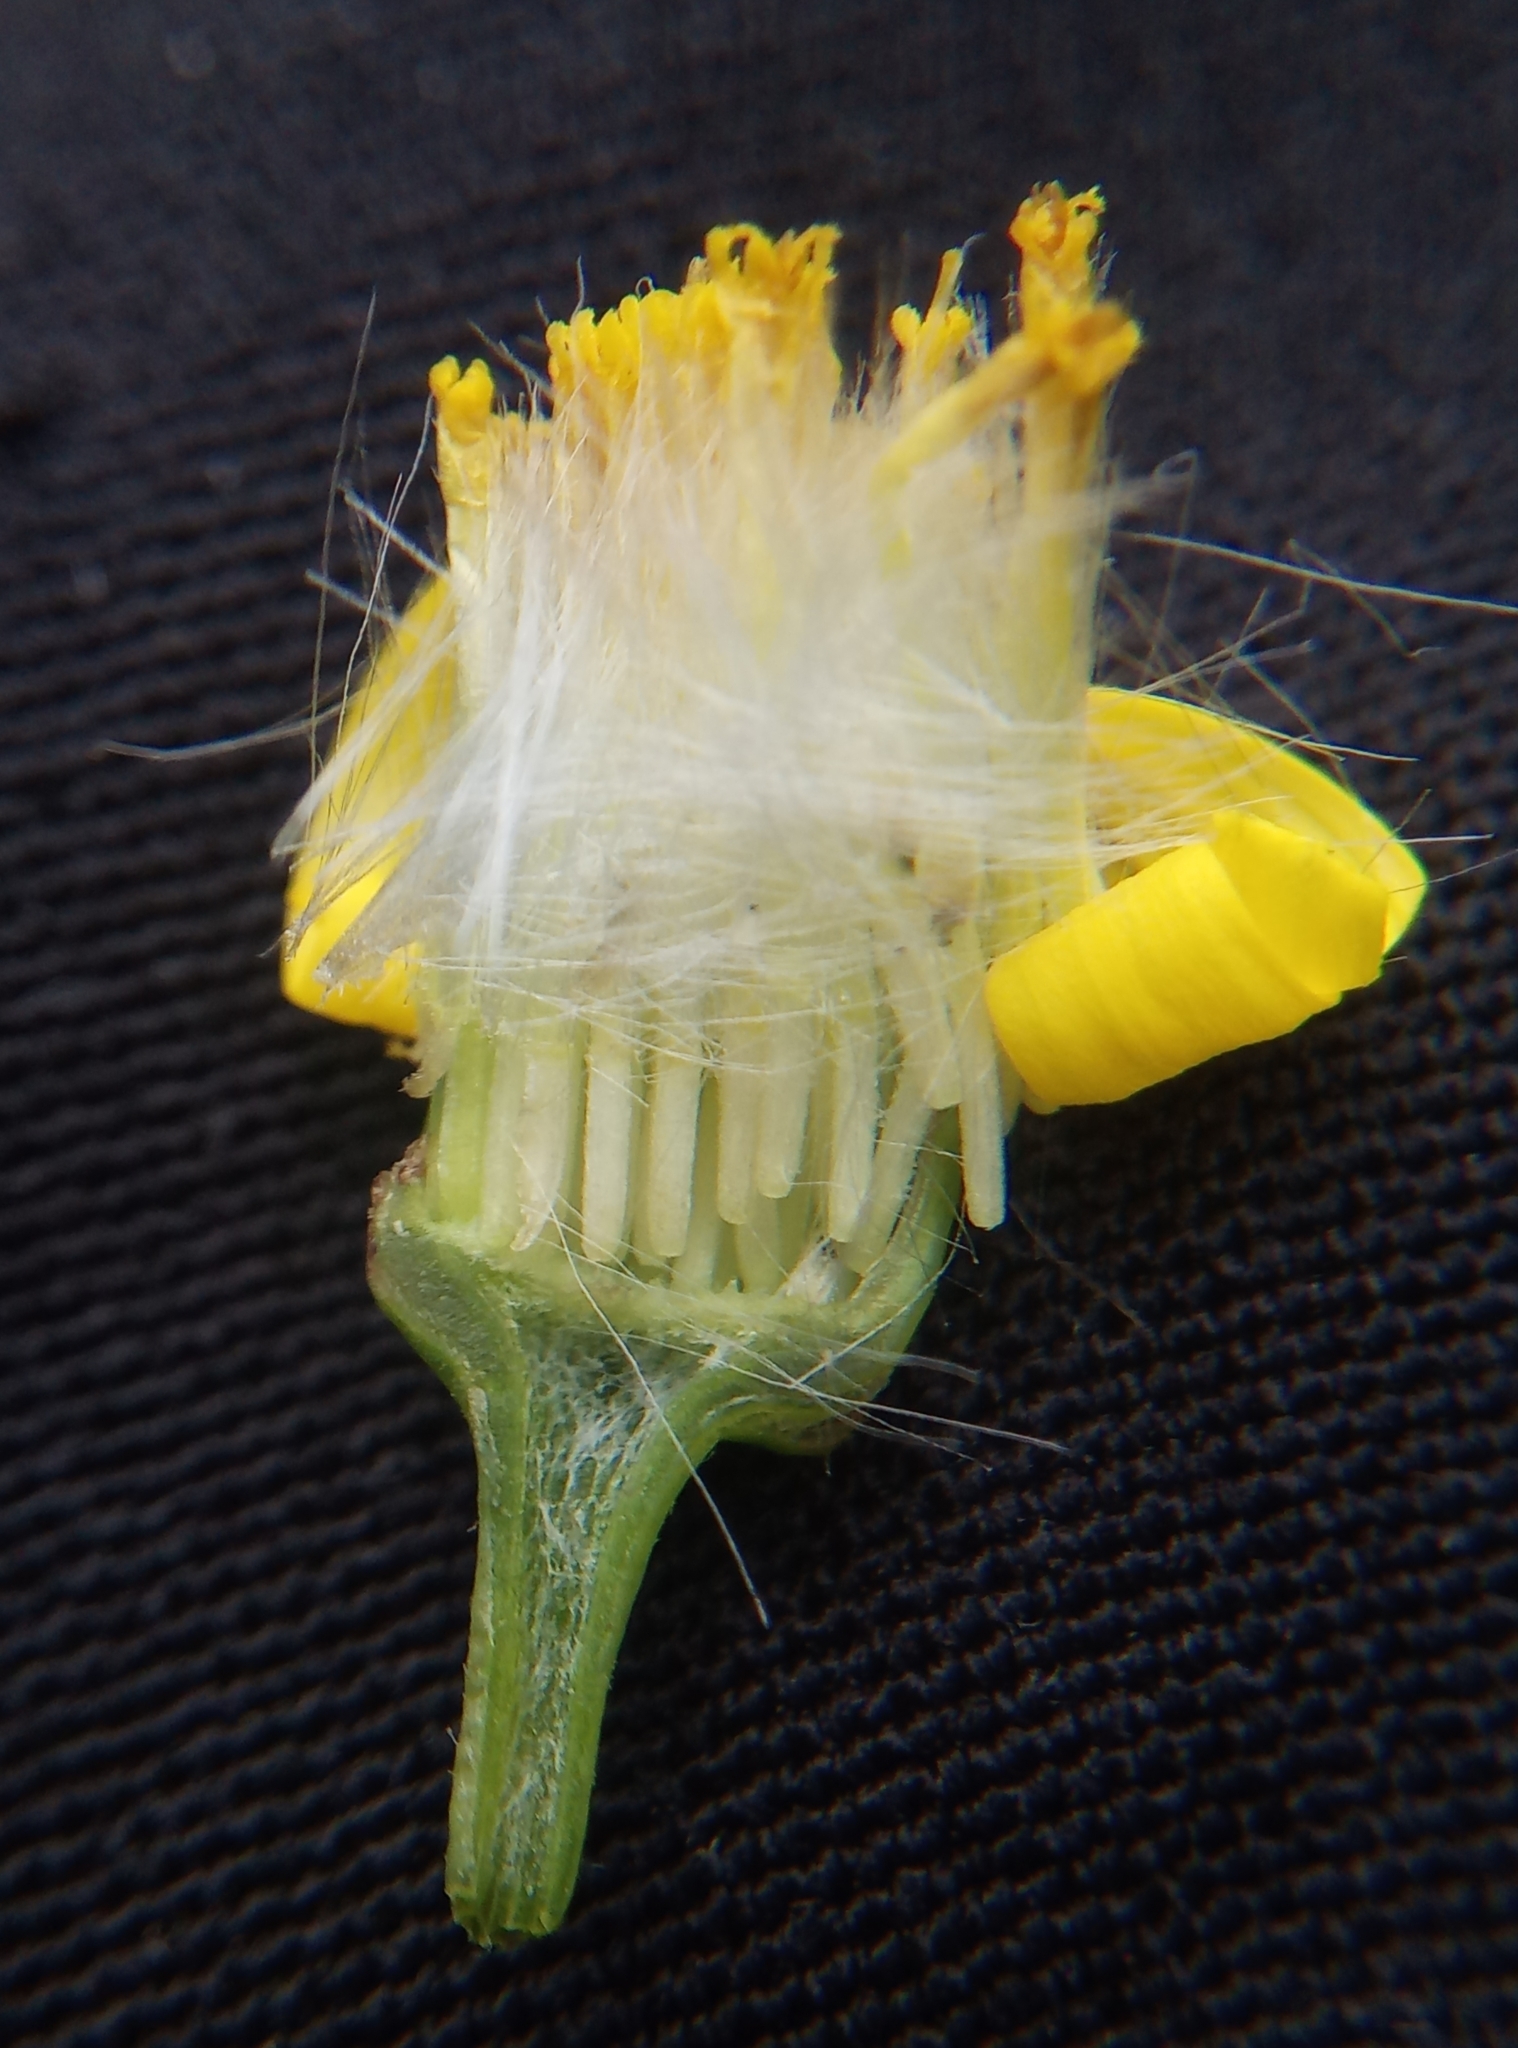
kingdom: Plantae
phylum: Tracheophyta
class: Magnoliopsida
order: Asterales
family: Asteraceae
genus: Senecio
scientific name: Senecio inaequidens
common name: Narrow-leaved ragwort
